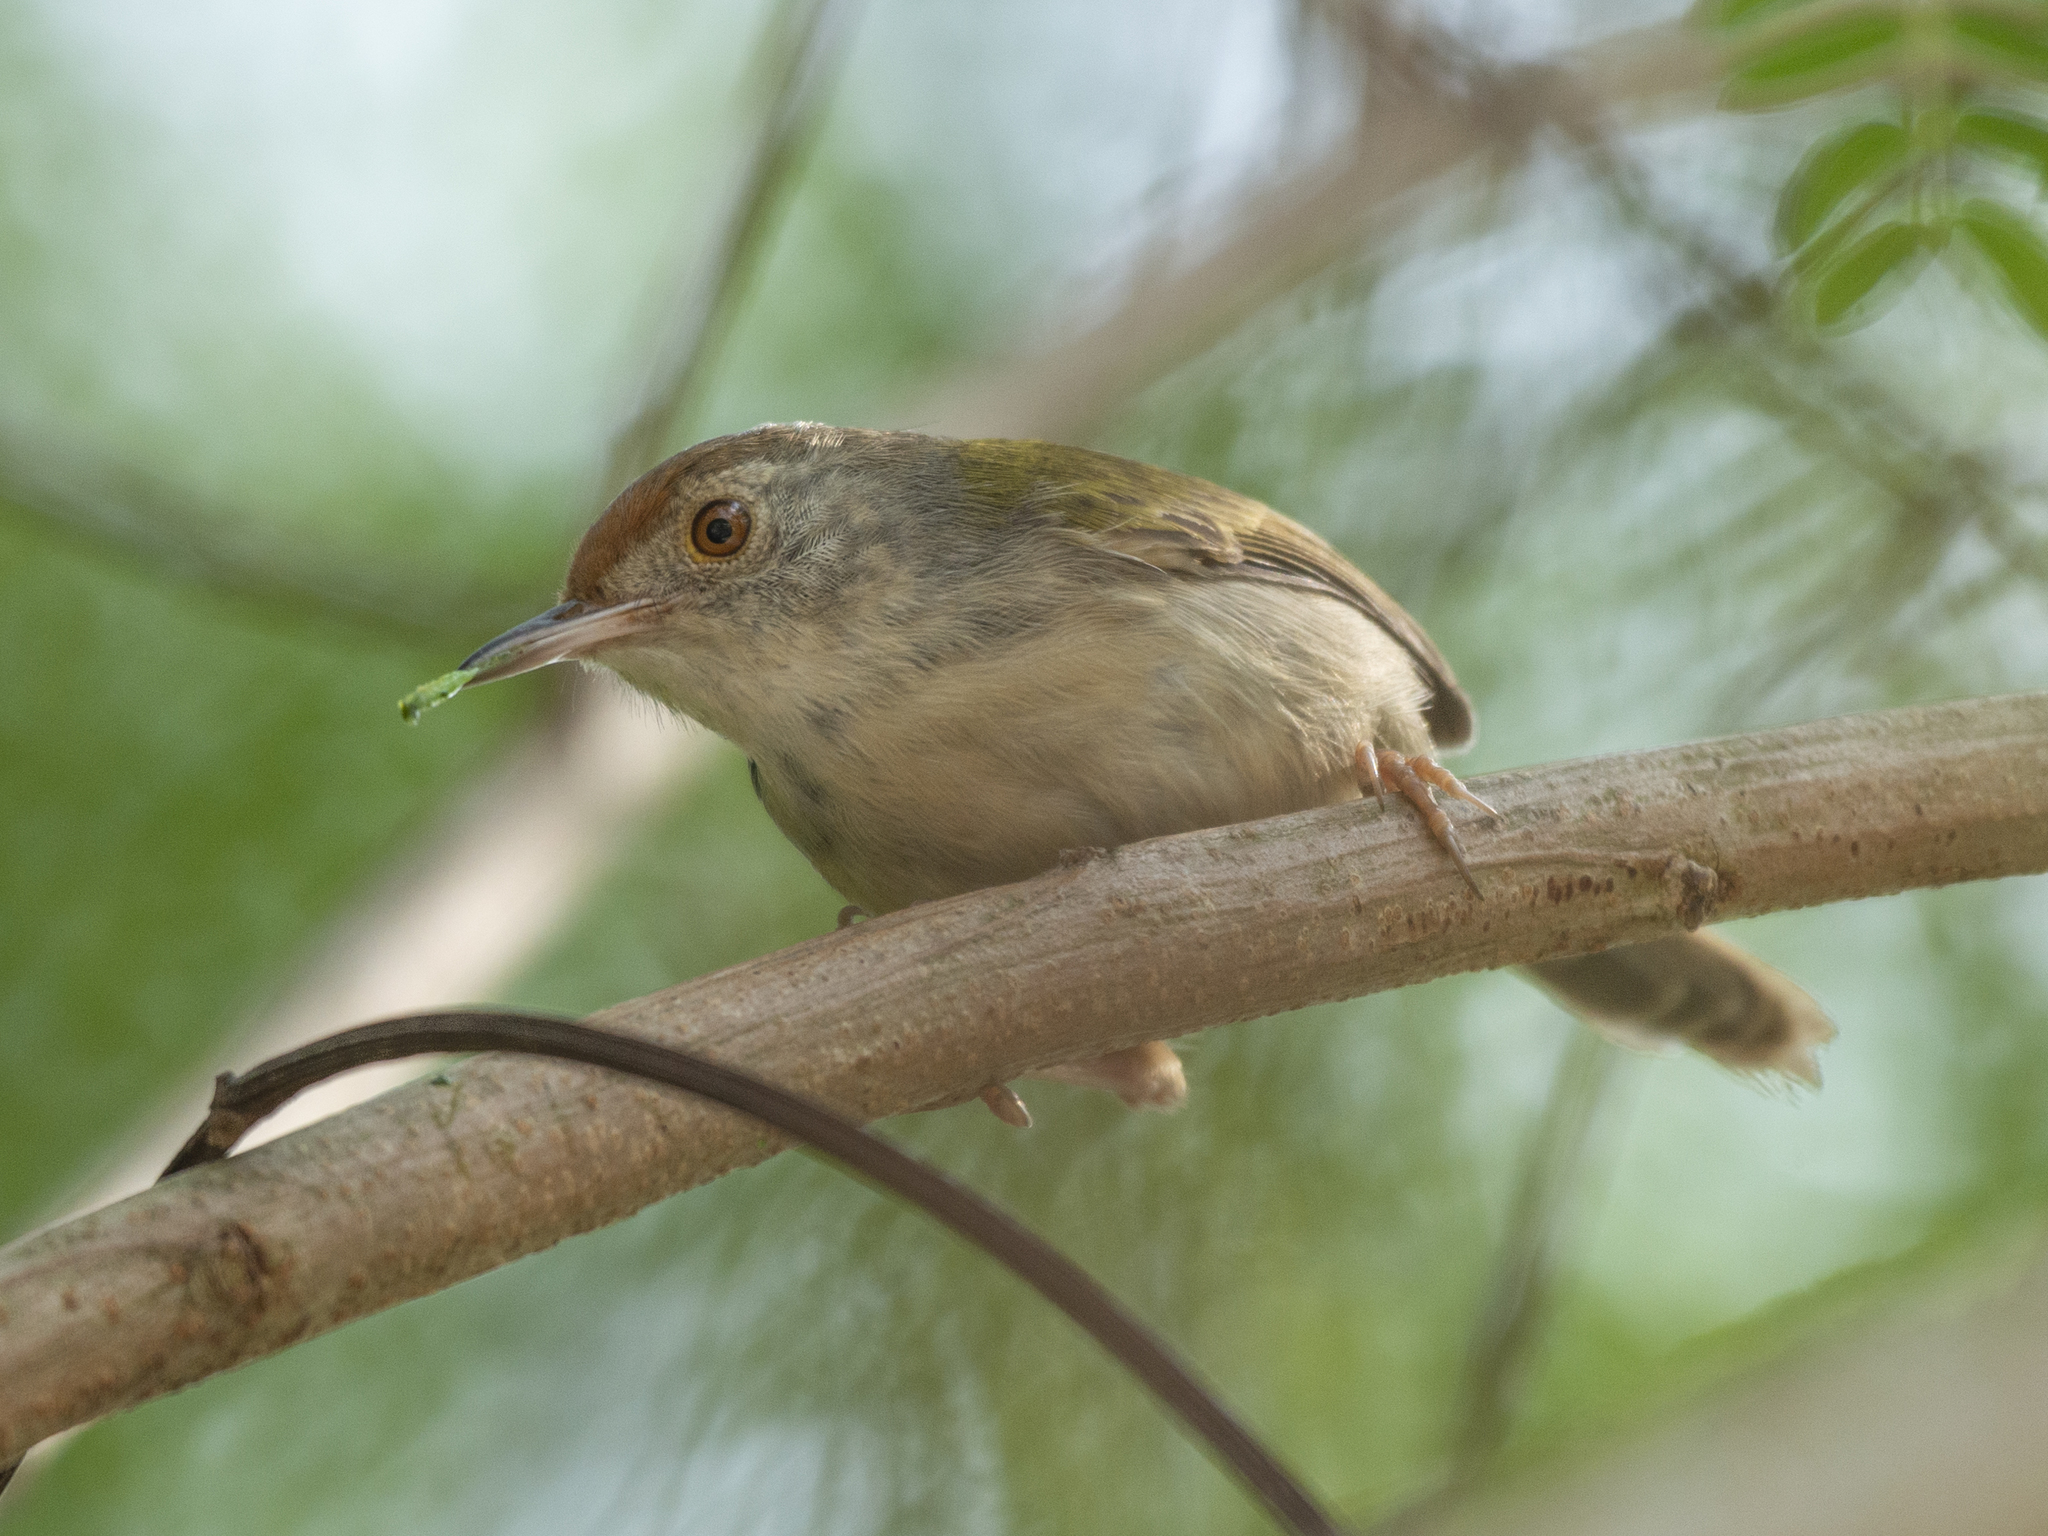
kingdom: Animalia
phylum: Chordata
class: Aves
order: Passeriformes
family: Cisticolidae
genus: Orthotomus
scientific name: Orthotomus sutorius
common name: Common tailorbird
